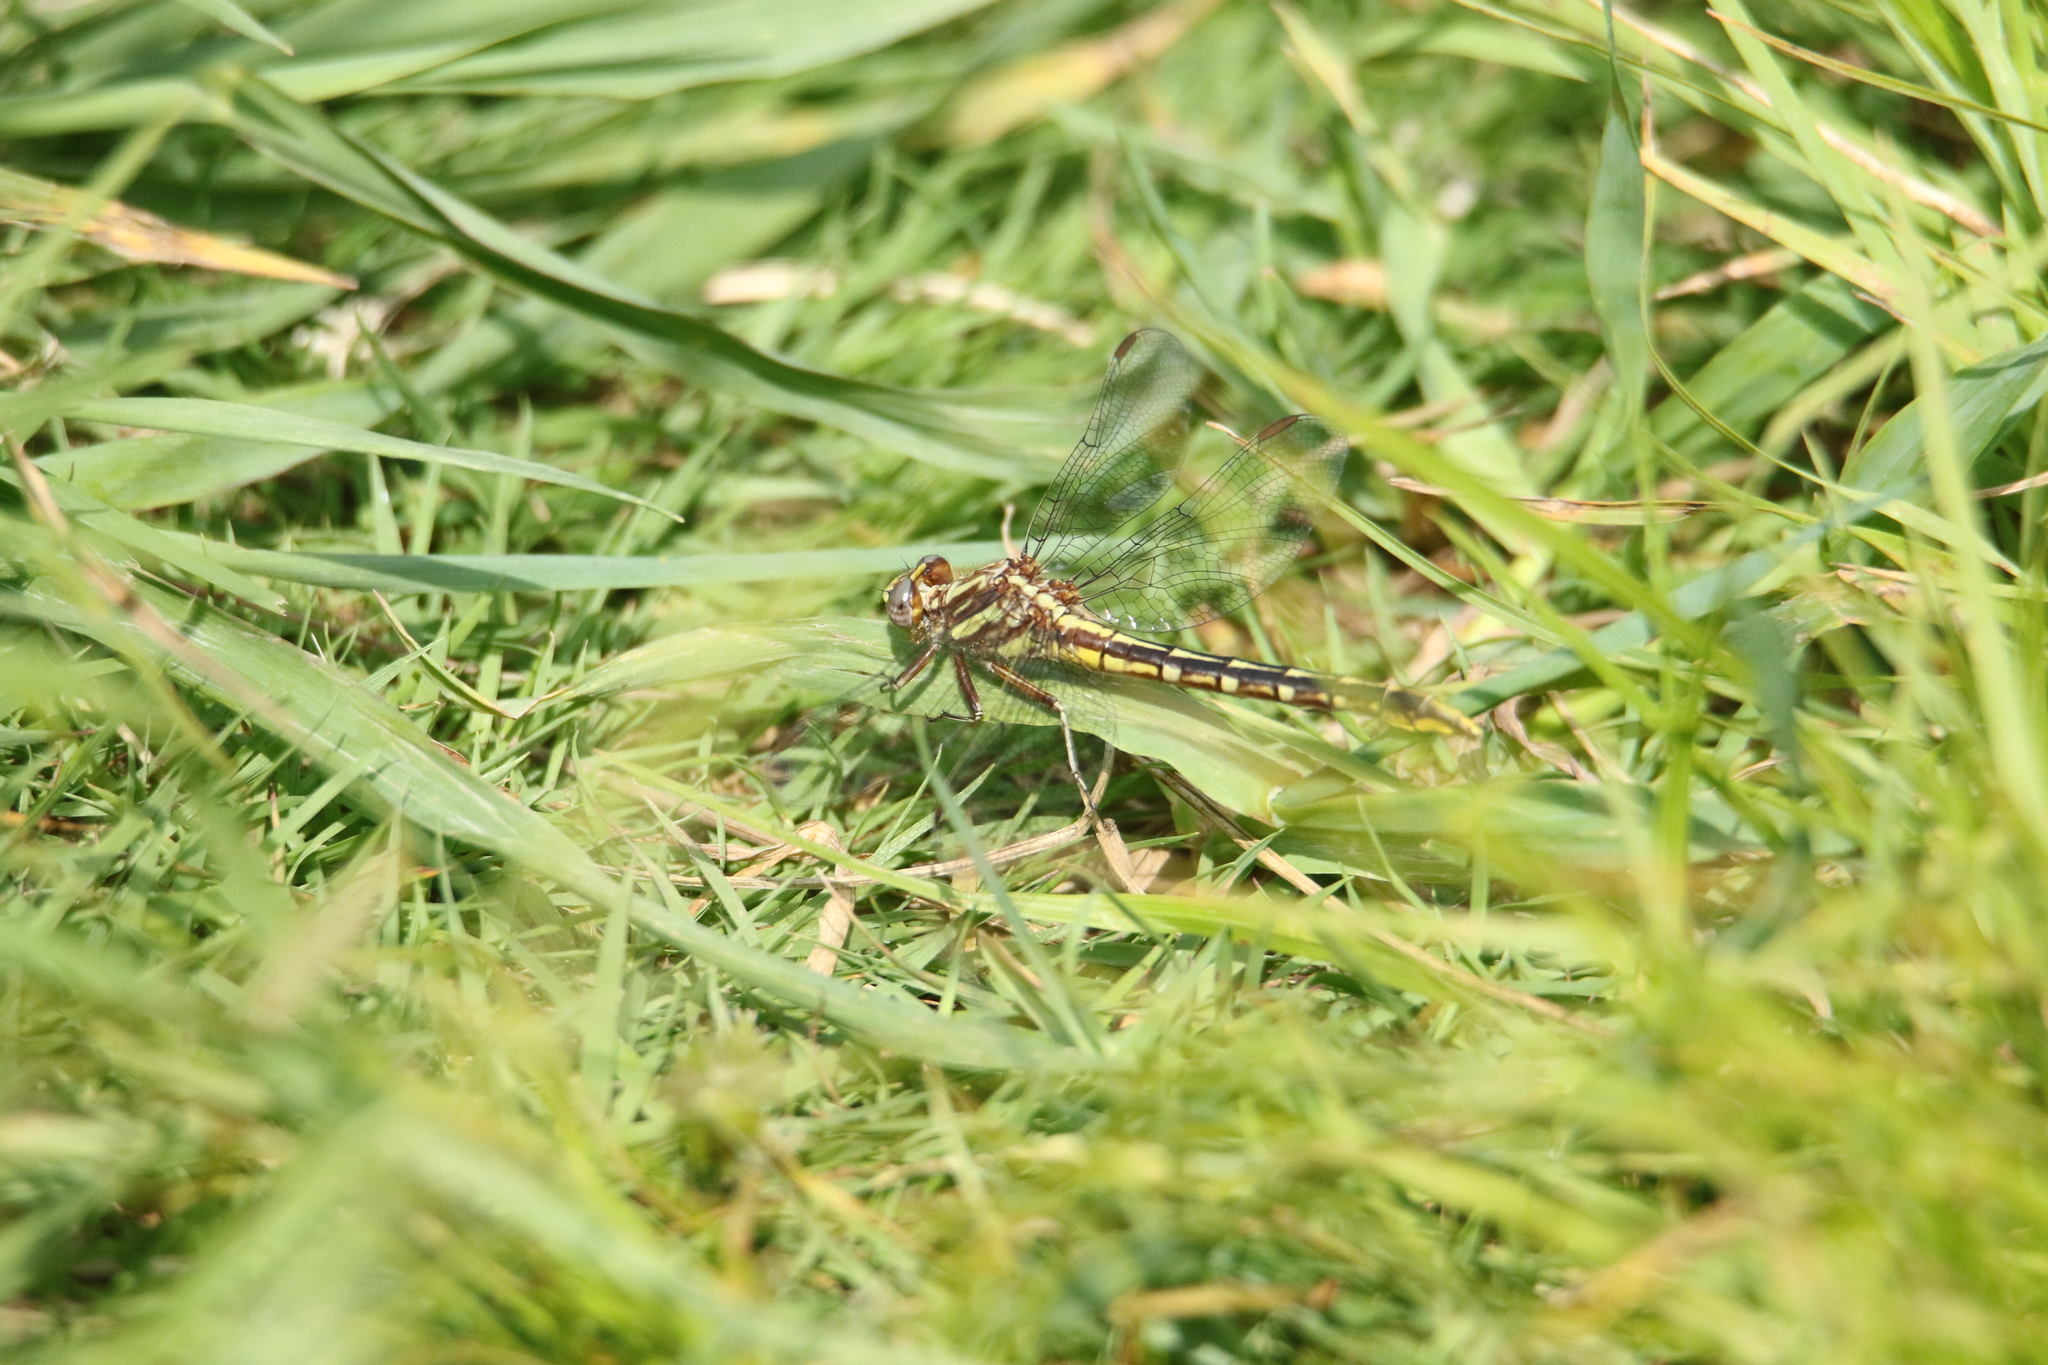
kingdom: Animalia
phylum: Arthropoda
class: Insecta
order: Odonata
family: Gomphidae
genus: Phanogomphus
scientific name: Phanogomphus exilis
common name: Lancet clubtail
